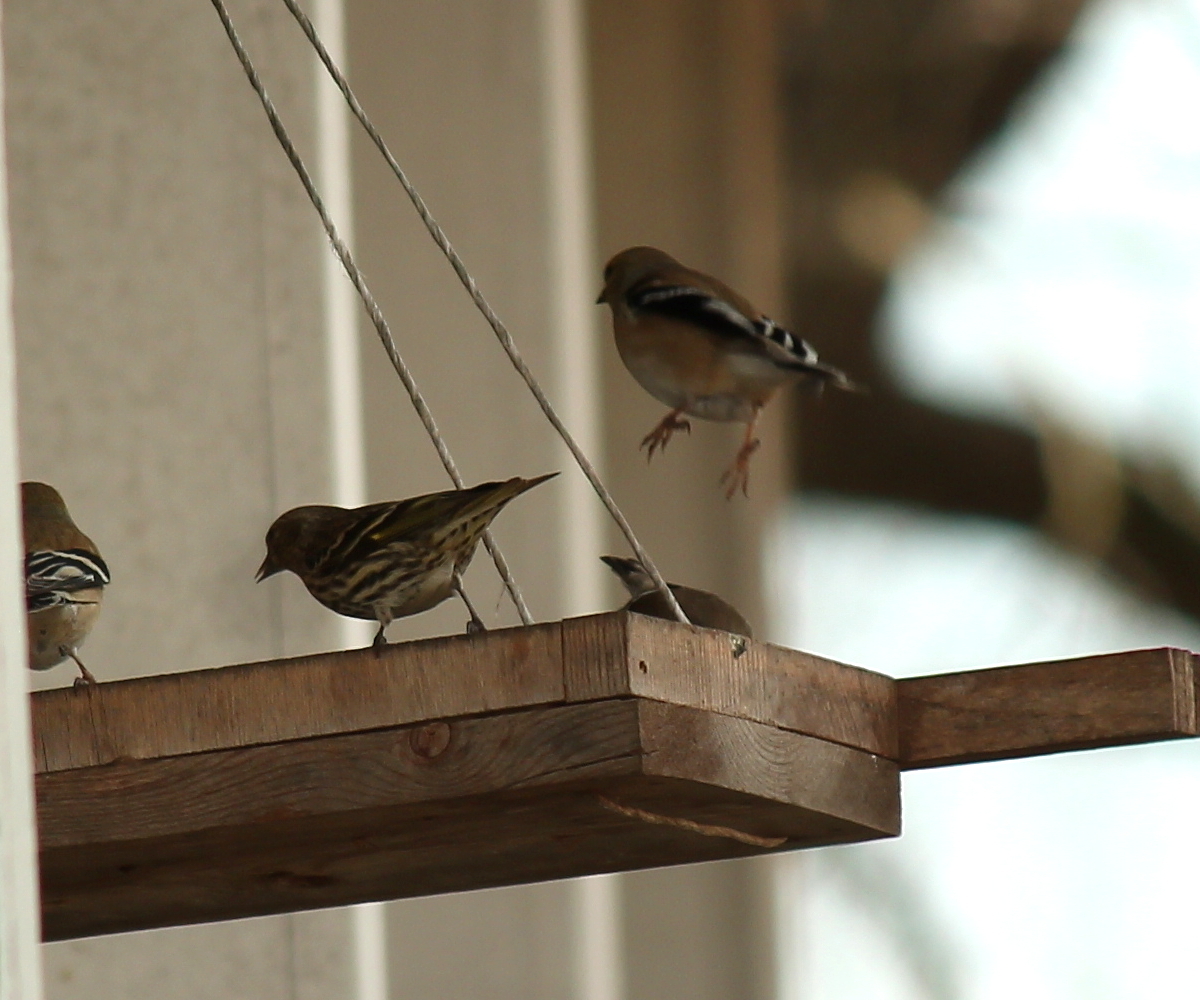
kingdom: Animalia
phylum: Chordata
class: Aves
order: Passeriformes
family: Fringillidae
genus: Spinus
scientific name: Spinus pinus
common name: Pine siskin
